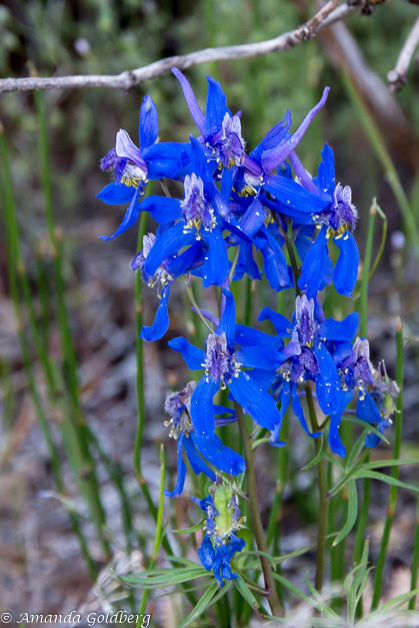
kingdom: Plantae
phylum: Tracheophyta
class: Magnoliopsida
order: Ranunculales
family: Ranunculaceae
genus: Delphinium
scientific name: Delphinium nuttallianum
